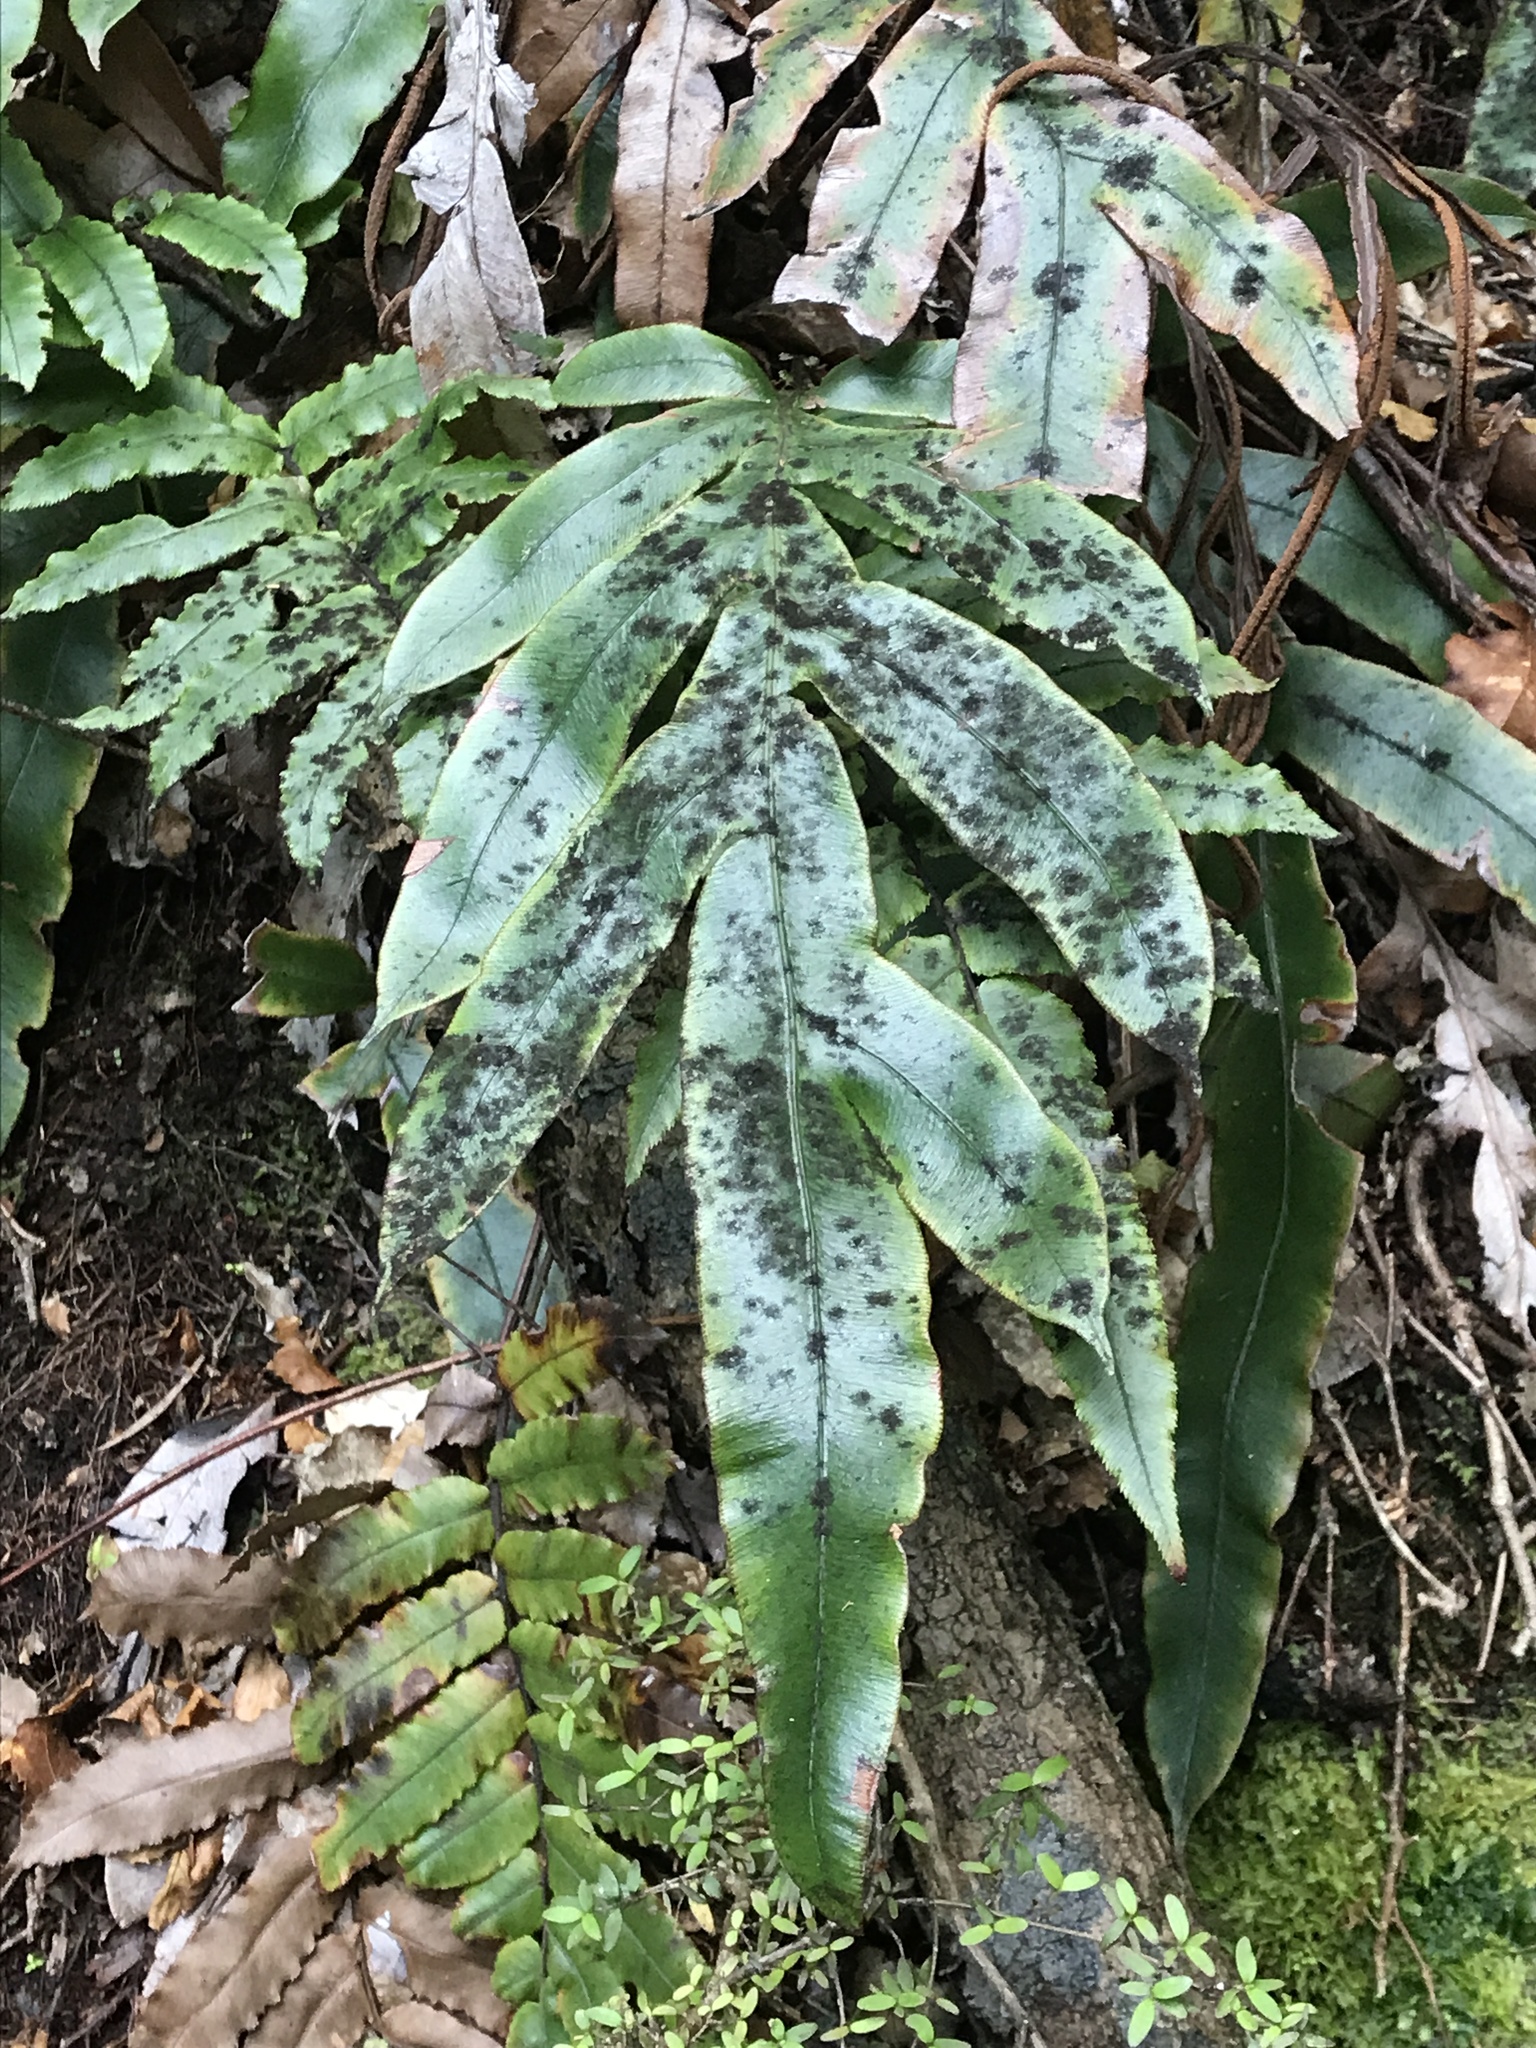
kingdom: Plantae
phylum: Tracheophyta
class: Polypodiopsida
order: Polypodiales
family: Blechnaceae
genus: Austroblechnum
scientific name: Austroblechnum colensoi
